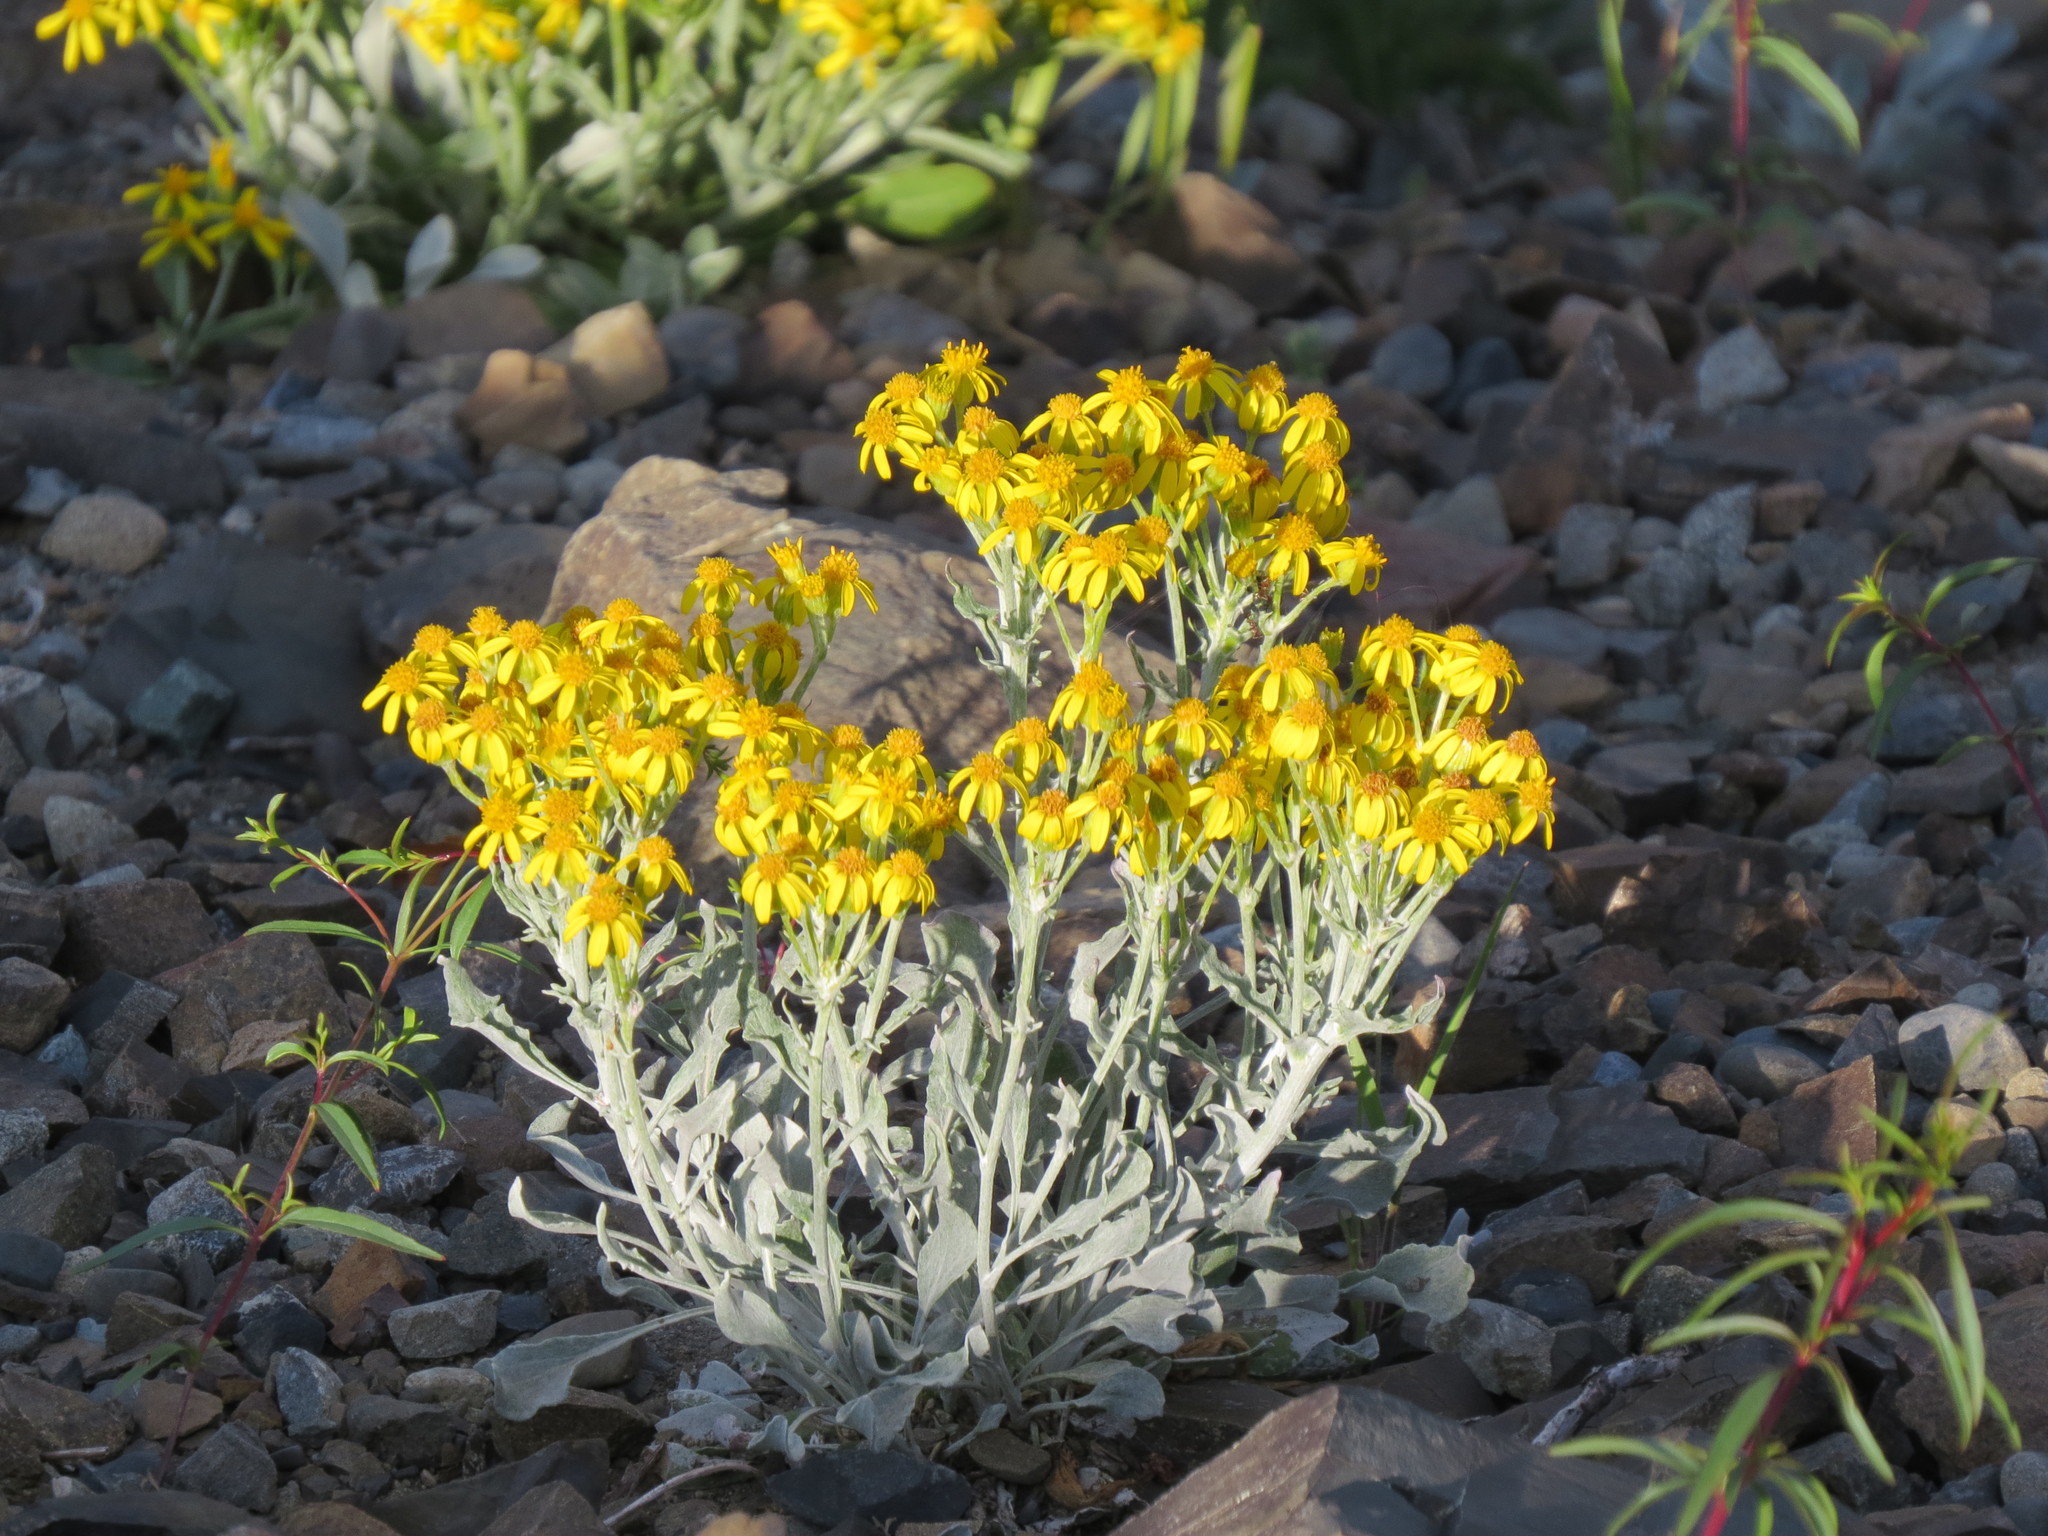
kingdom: Plantae
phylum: Tracheophyta
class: Magnoliopsida
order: Asterales
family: Asteraceae
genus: Packera
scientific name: Packera cana
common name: Woolly groundsel
